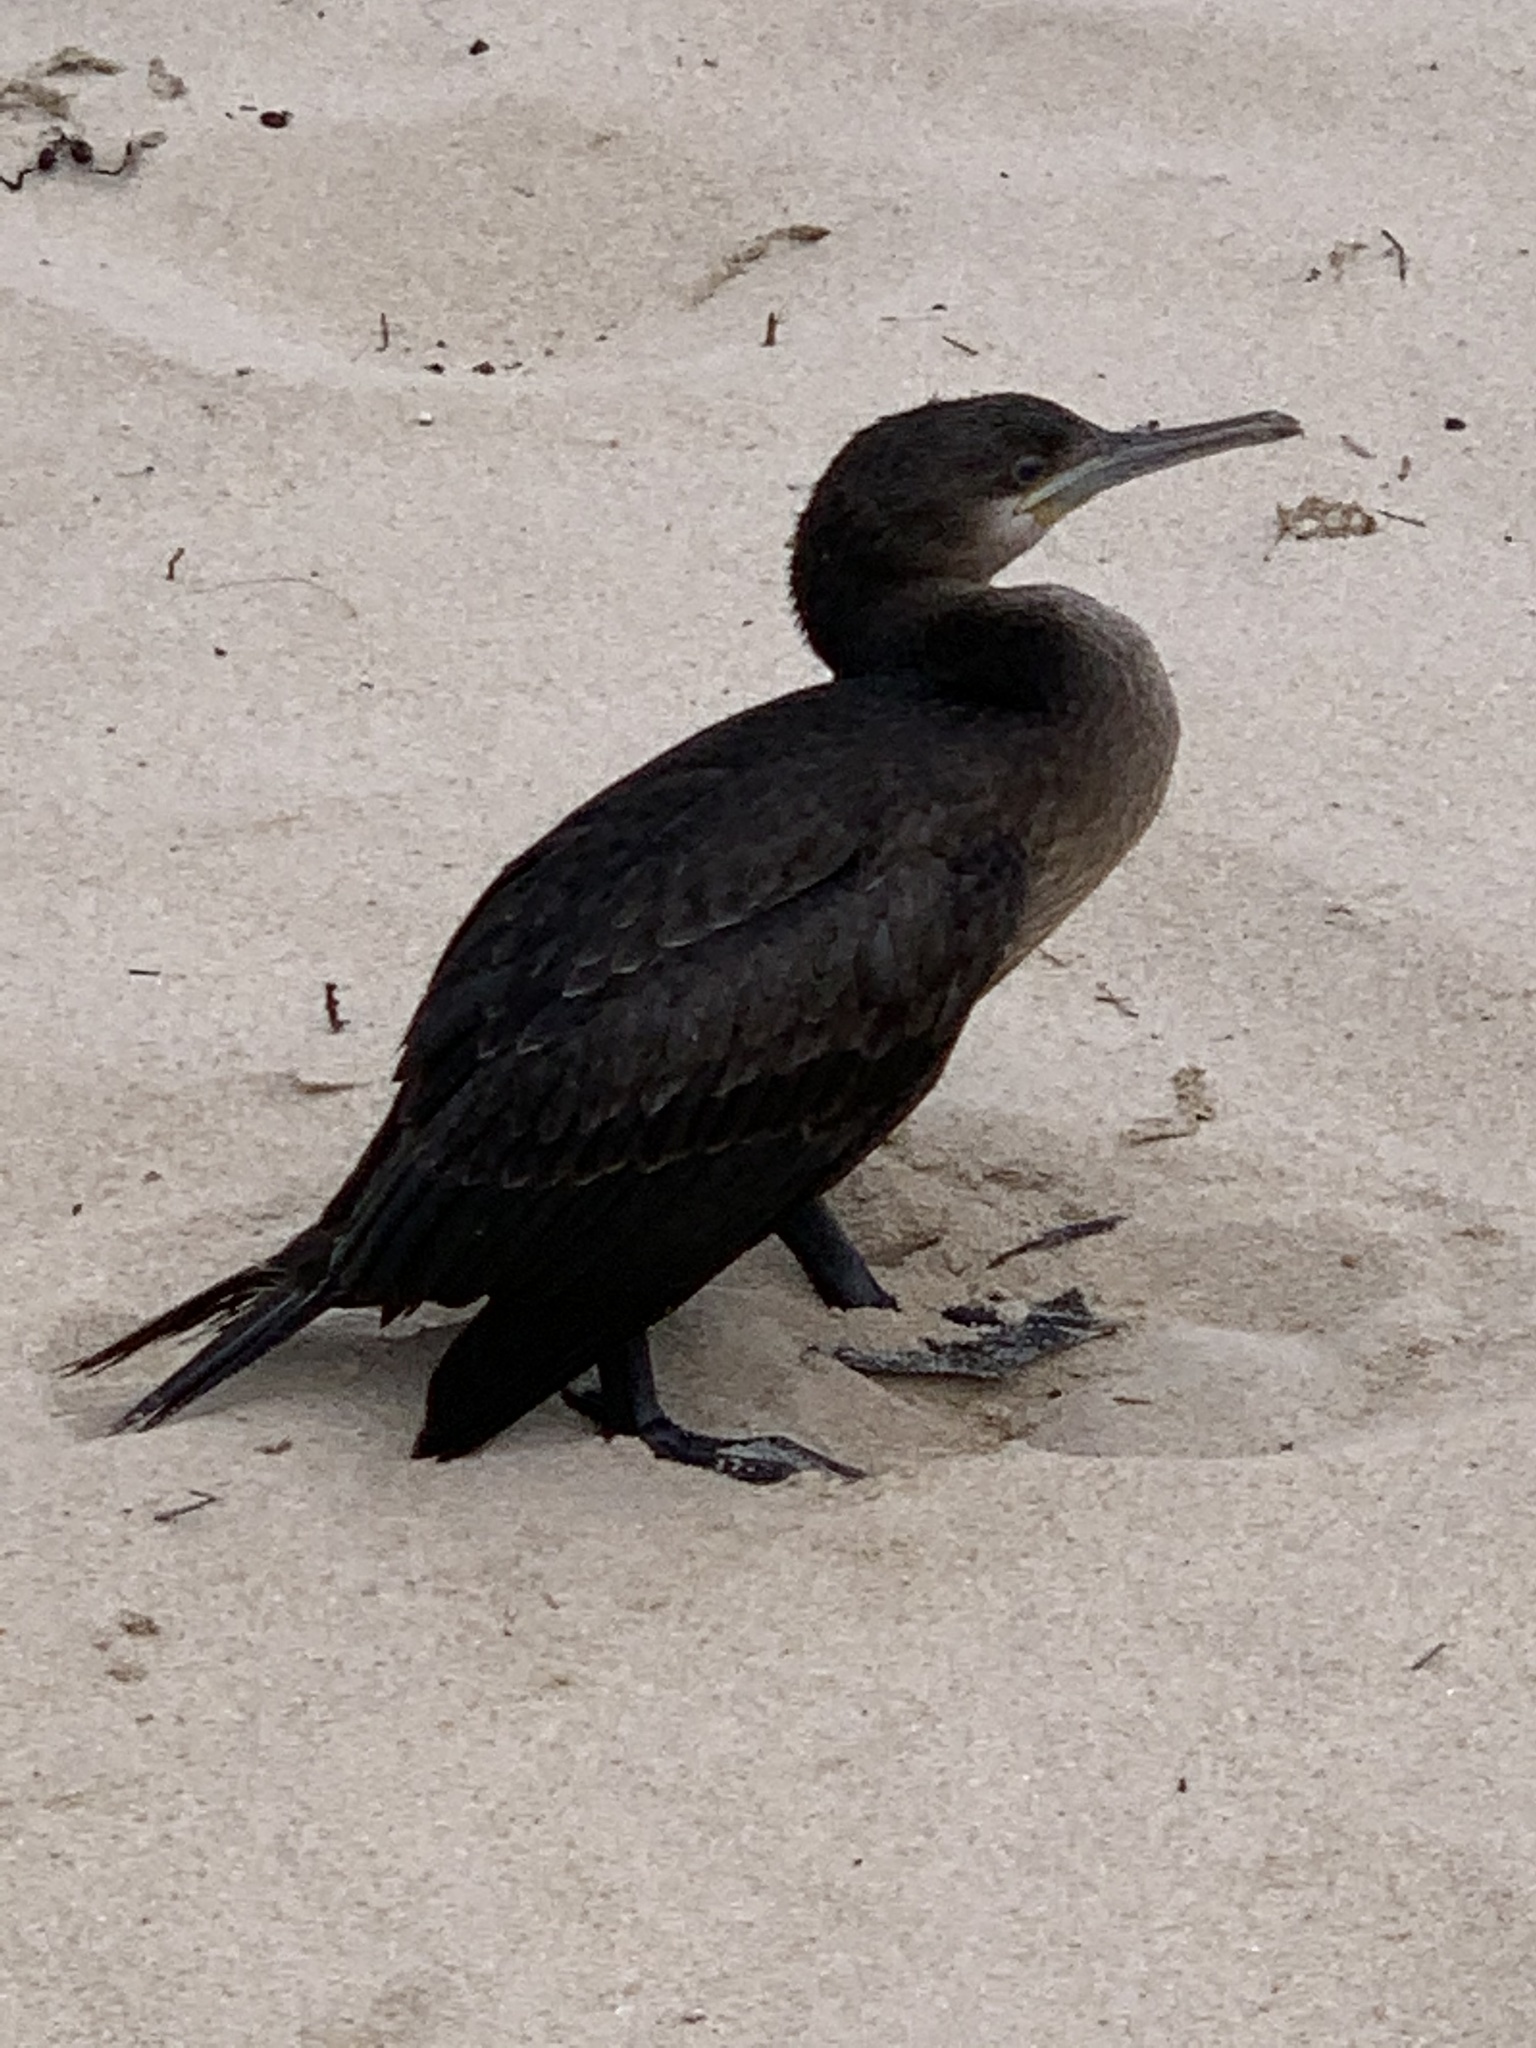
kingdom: Animalia
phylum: Chordata
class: Aves
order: Suliformes
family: Phalacrocoracidae
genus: Phalacrocorax
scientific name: Phalacrocorax capensis
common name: Cape cormorant
